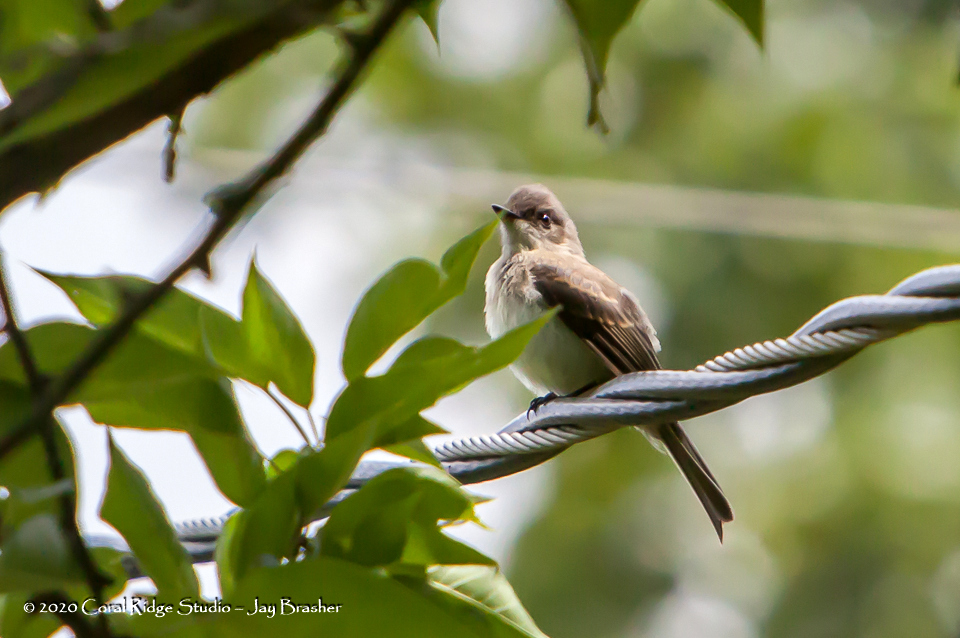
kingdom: Animalia
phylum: Chordata
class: Aves
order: Passeriformes
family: Tyrannidae
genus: Sayornis
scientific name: Sayornis phoebe
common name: Eastern phoebe
